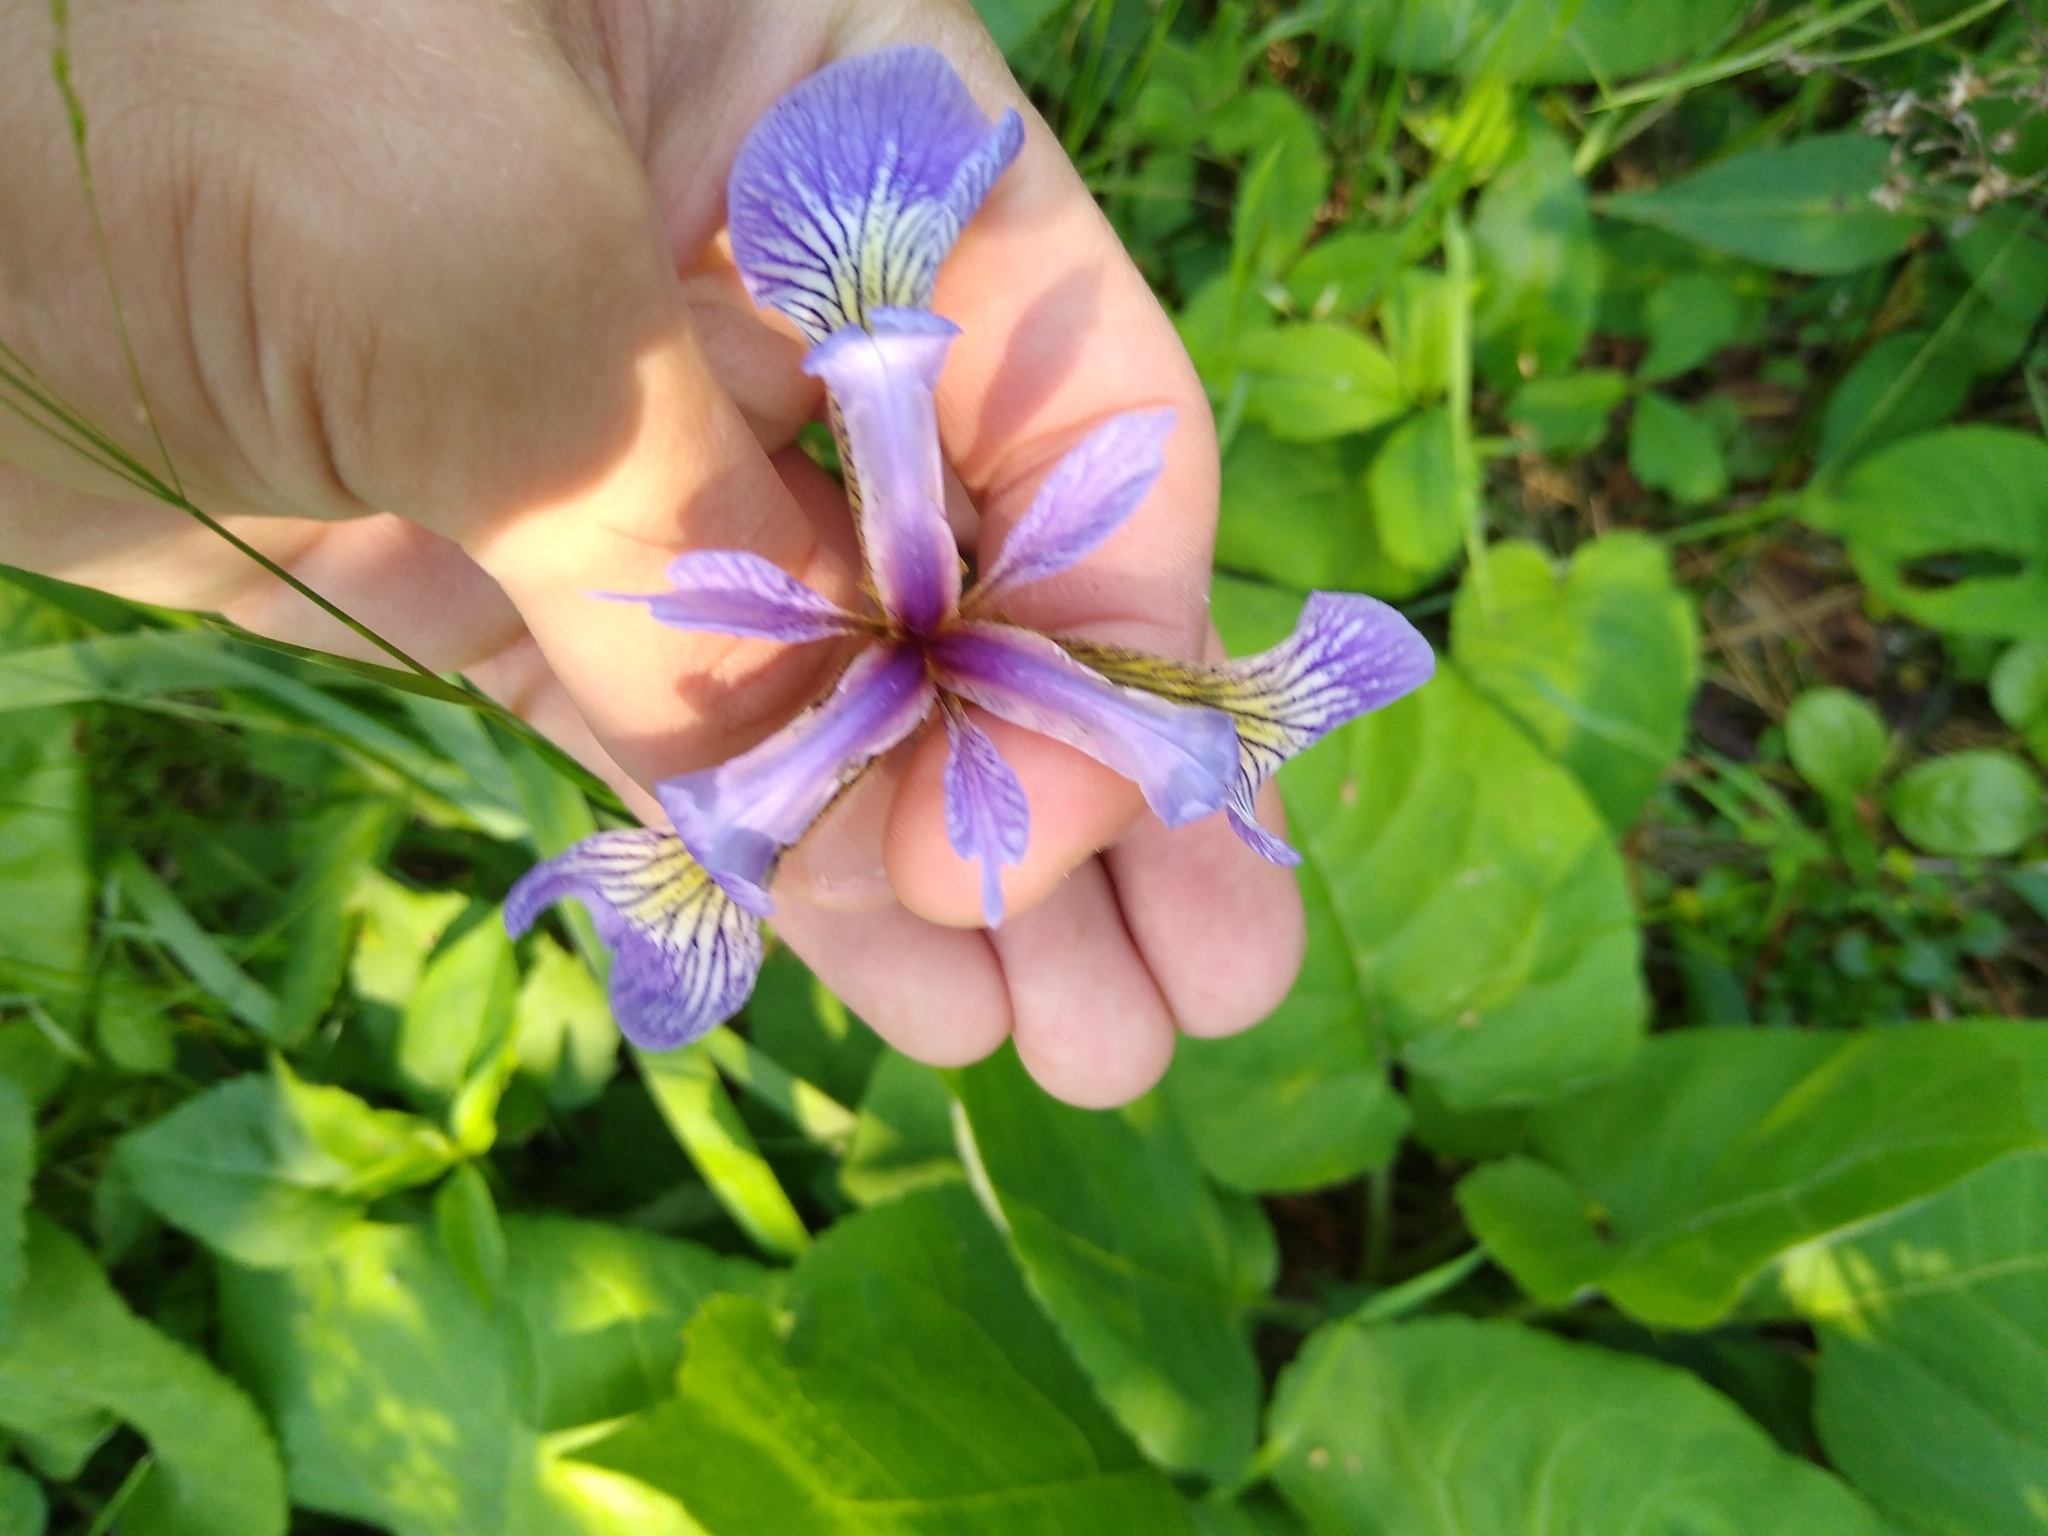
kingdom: Plantae
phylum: Tracheophyta
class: Liliopsida
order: Asparagales
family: Iridaceae
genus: Iris
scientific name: Iris versicolor
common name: Purple iris
